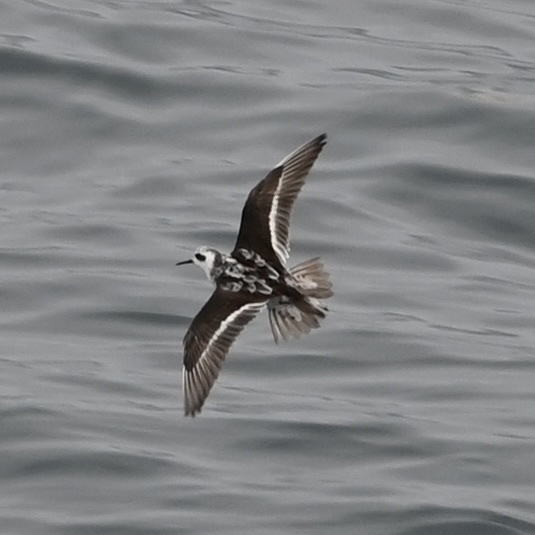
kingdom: Animalia
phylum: Chordata
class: Aves
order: Charadriiformes
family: Scolopacidae
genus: Phalaropus
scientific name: Phalaropus lobatus
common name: Red-necked phalarope
